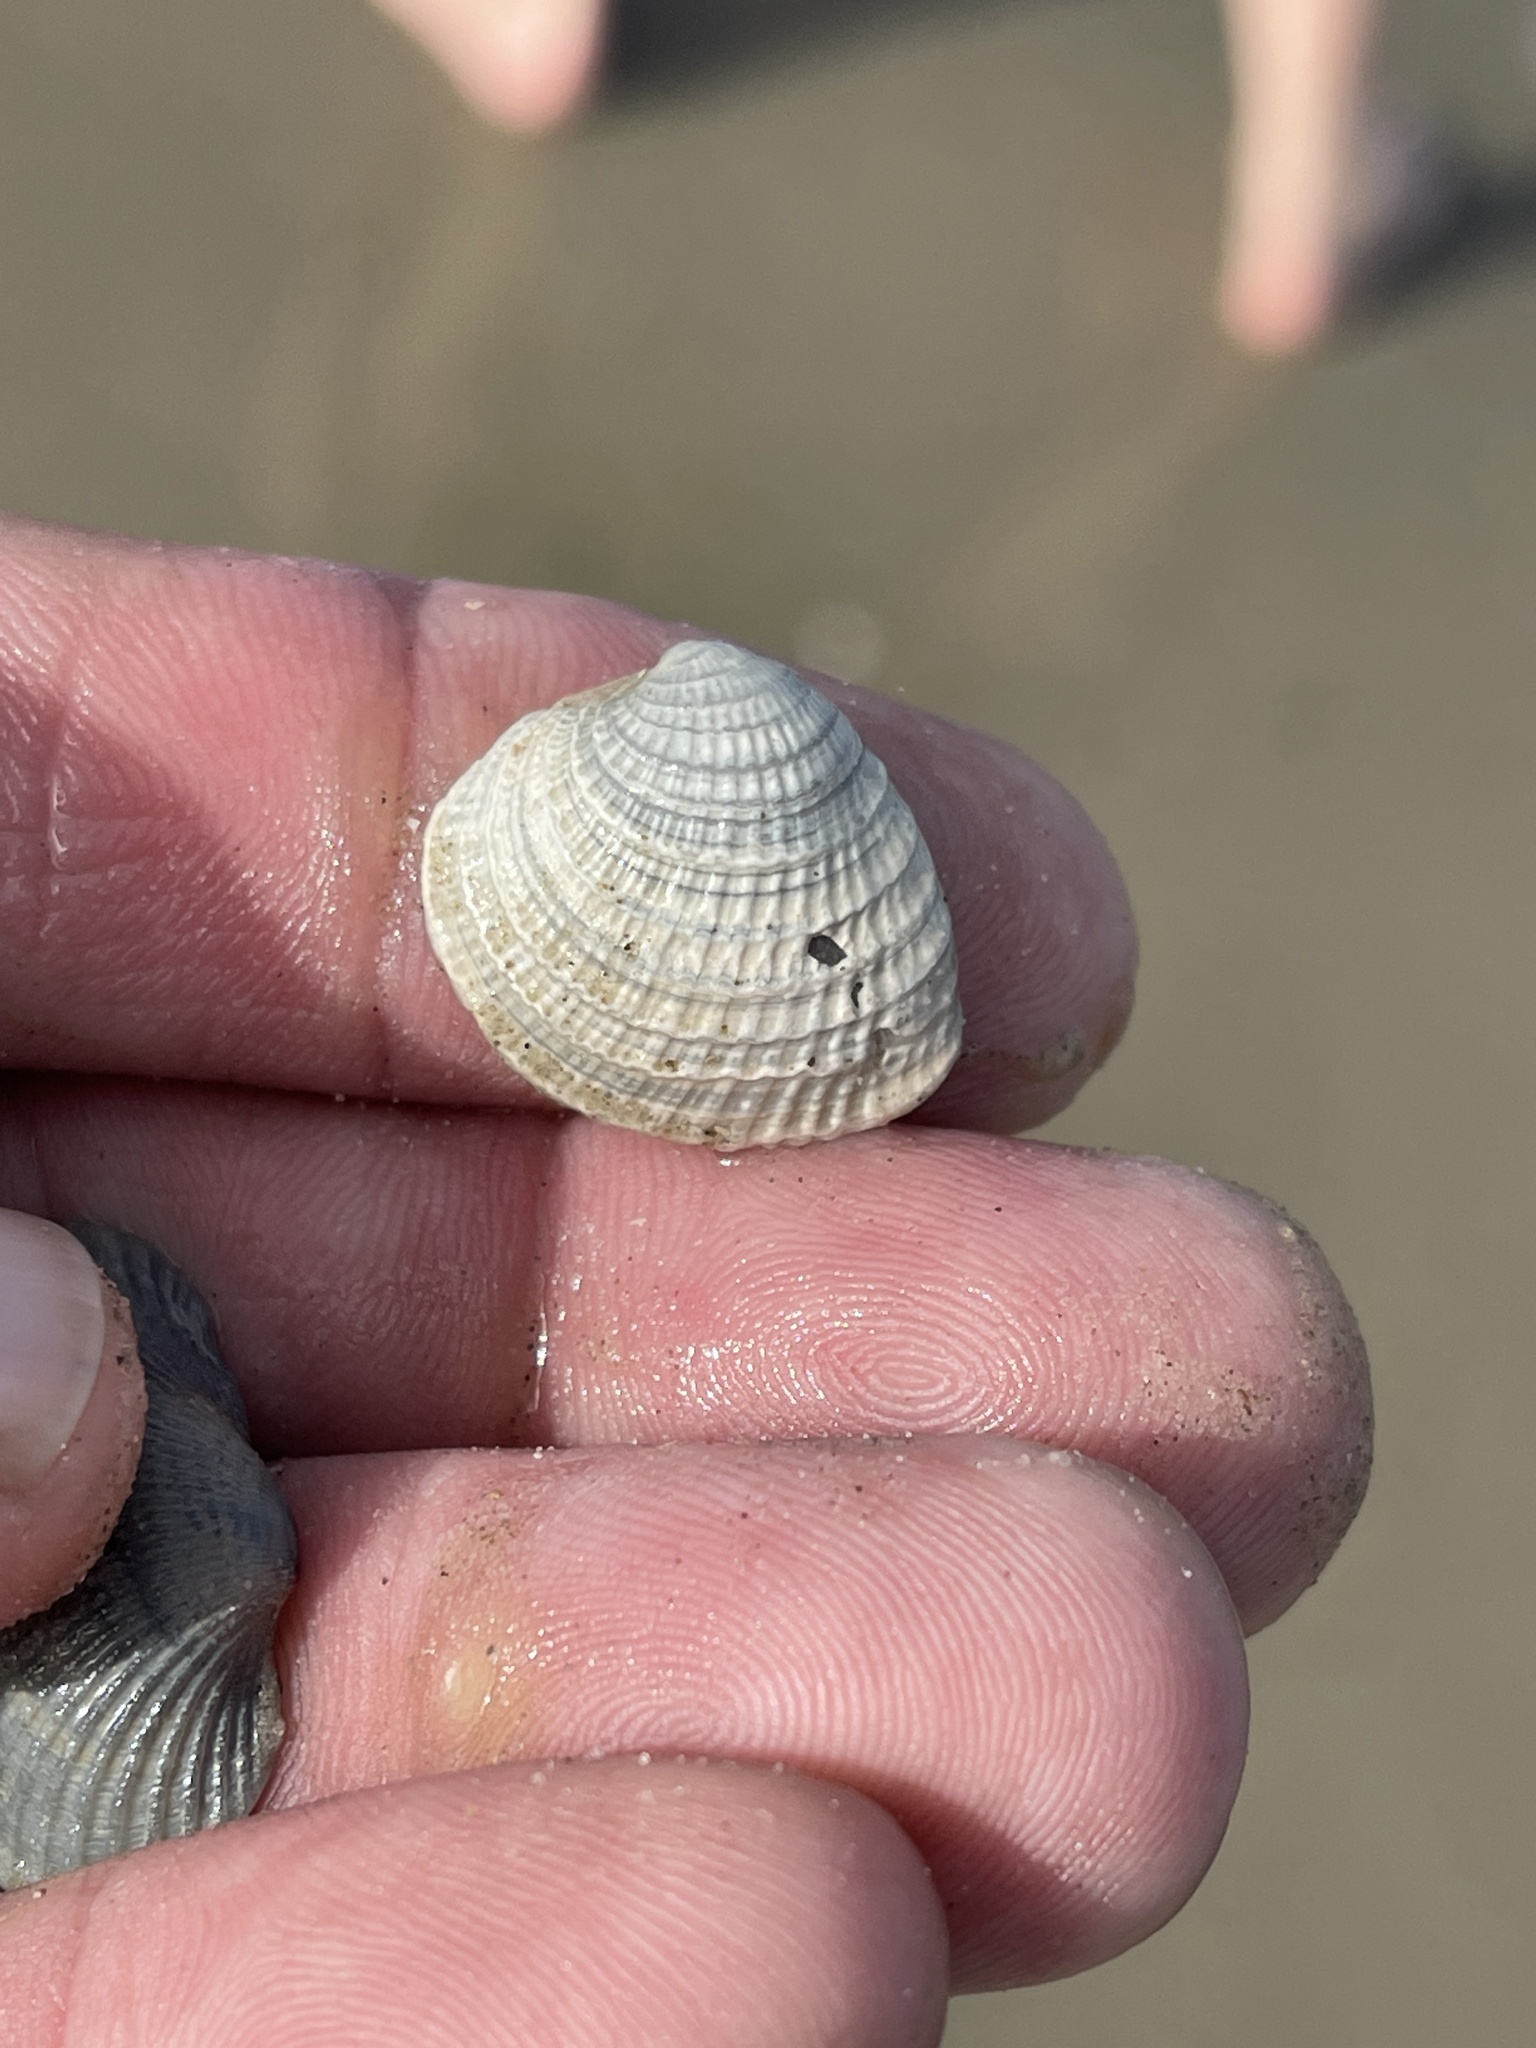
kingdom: Animalia
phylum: Mollusca
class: Bivalvia
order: Venerida
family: Veneridae
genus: Chione
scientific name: Chione elevata
